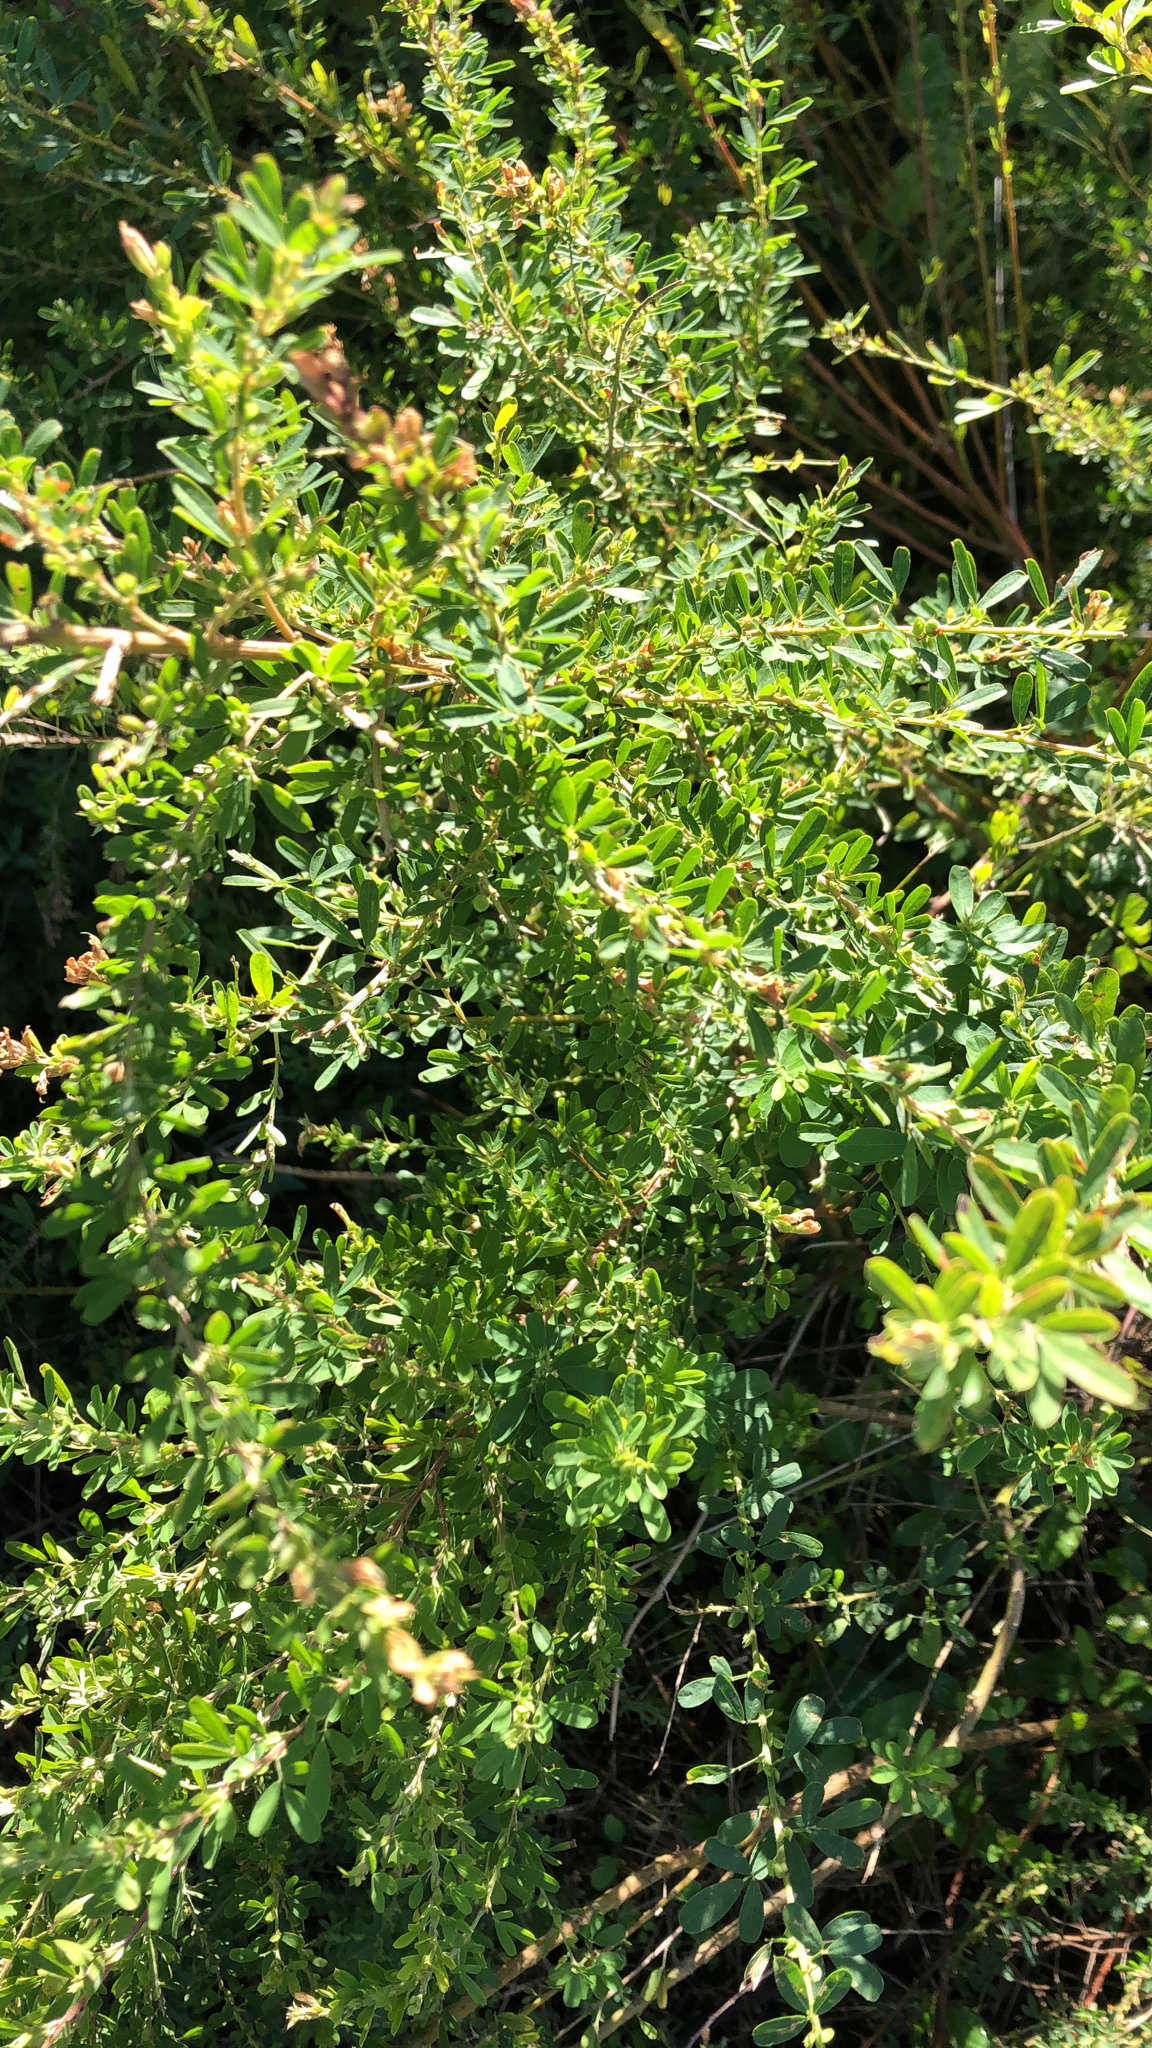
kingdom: Plantae
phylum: Tracheophyta
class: Magnoliopsida
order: Fabales
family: Fabaceae
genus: Lespedeza
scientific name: Lespedeza cuneata
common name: Chinese bush-clover
